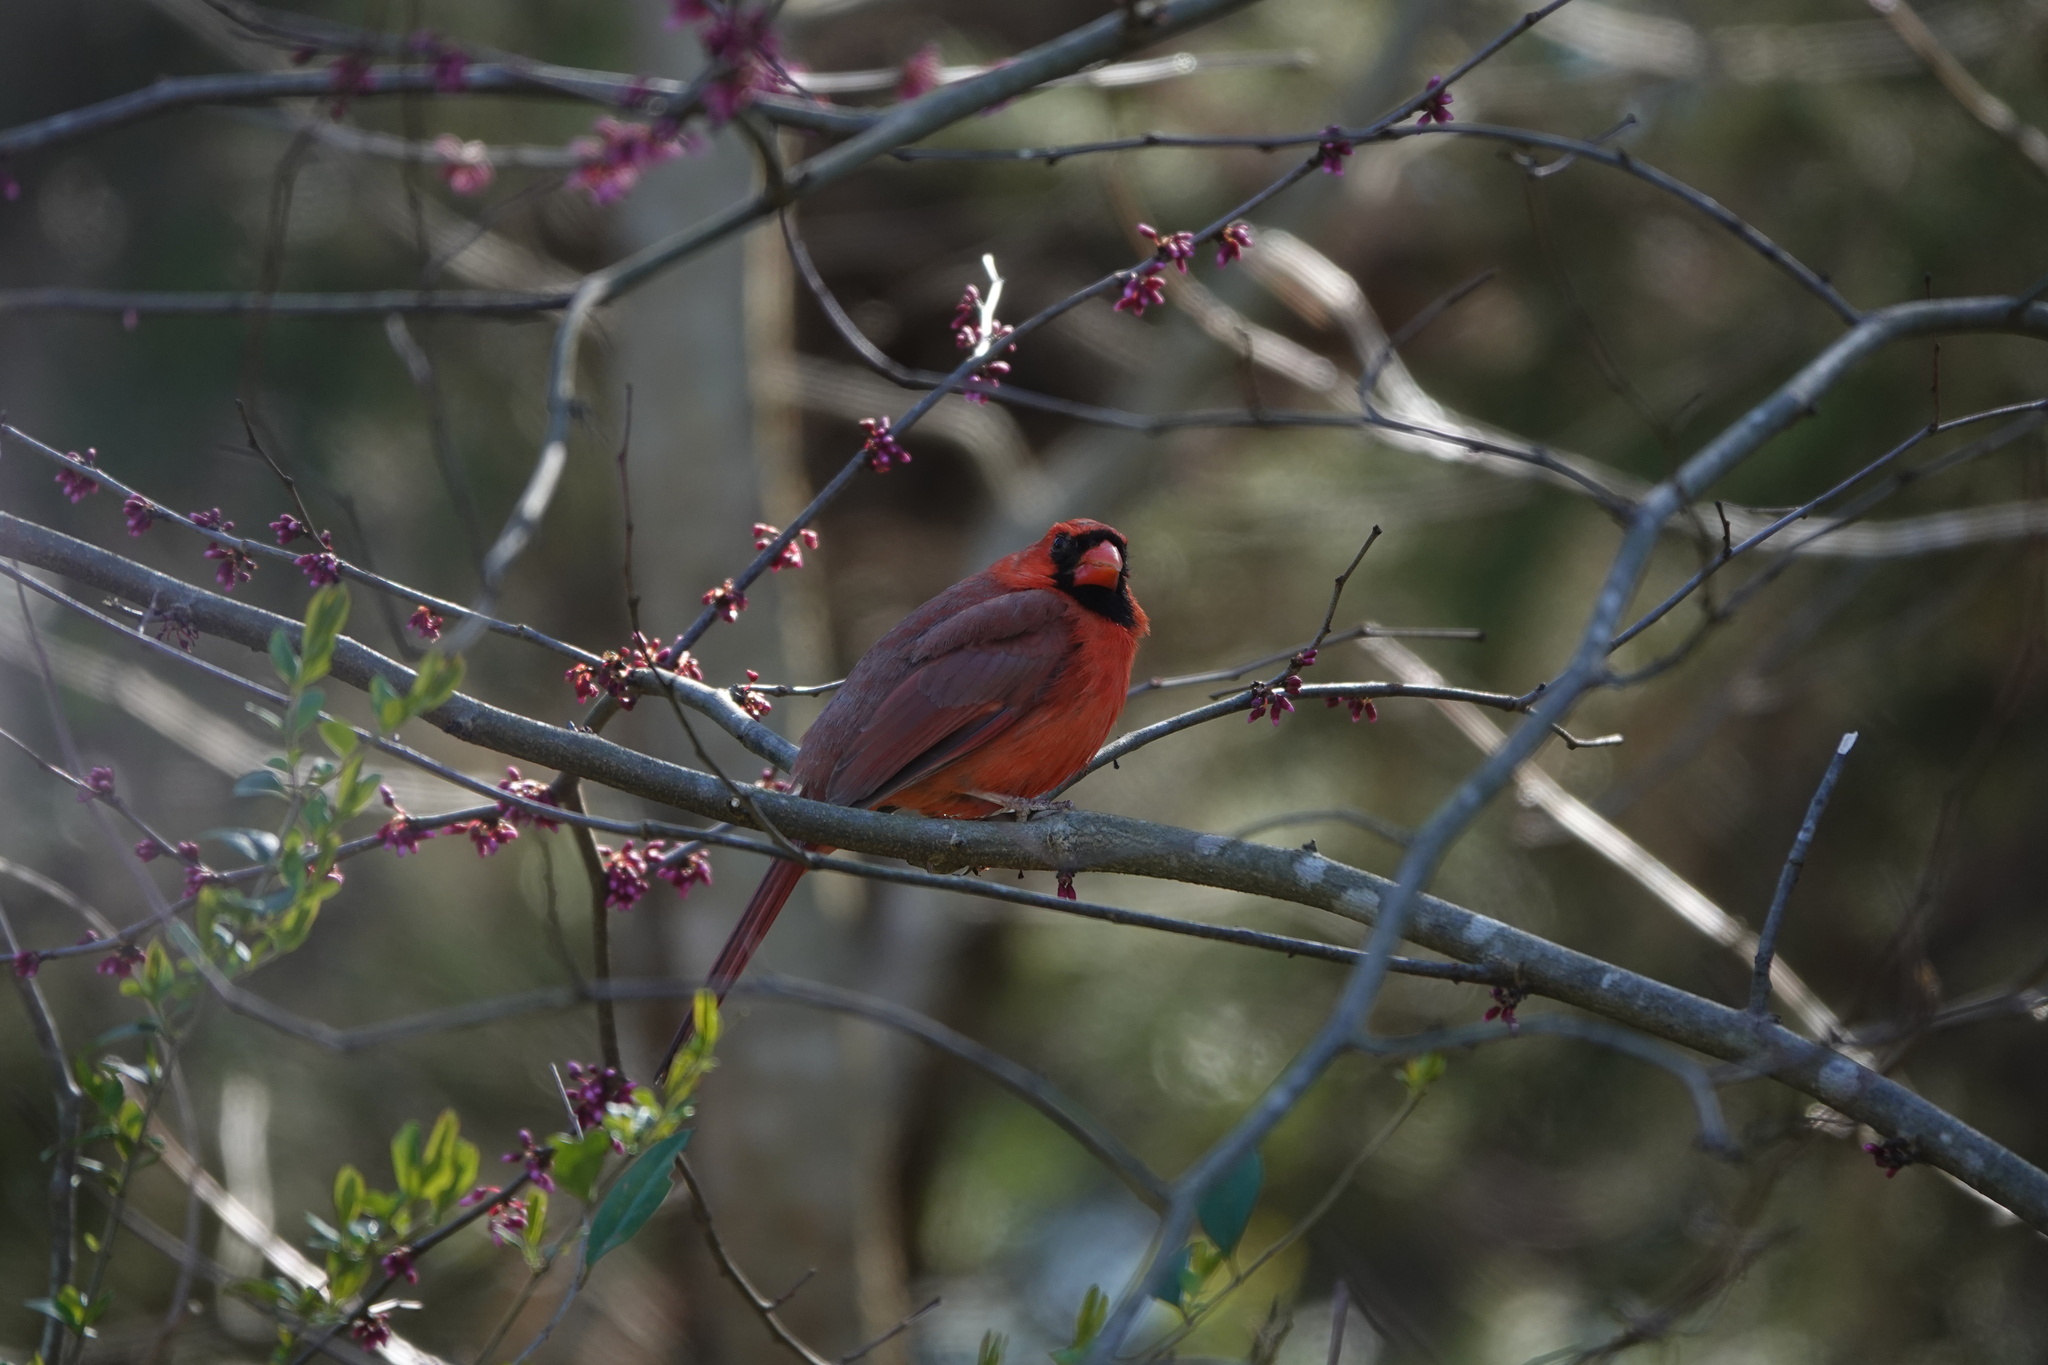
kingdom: Animalia
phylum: Chordata
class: Aves
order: Passeriformes
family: Cardinalidae
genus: Cardinalis
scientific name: Cardinalis cardinalis
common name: Northern cardinal
